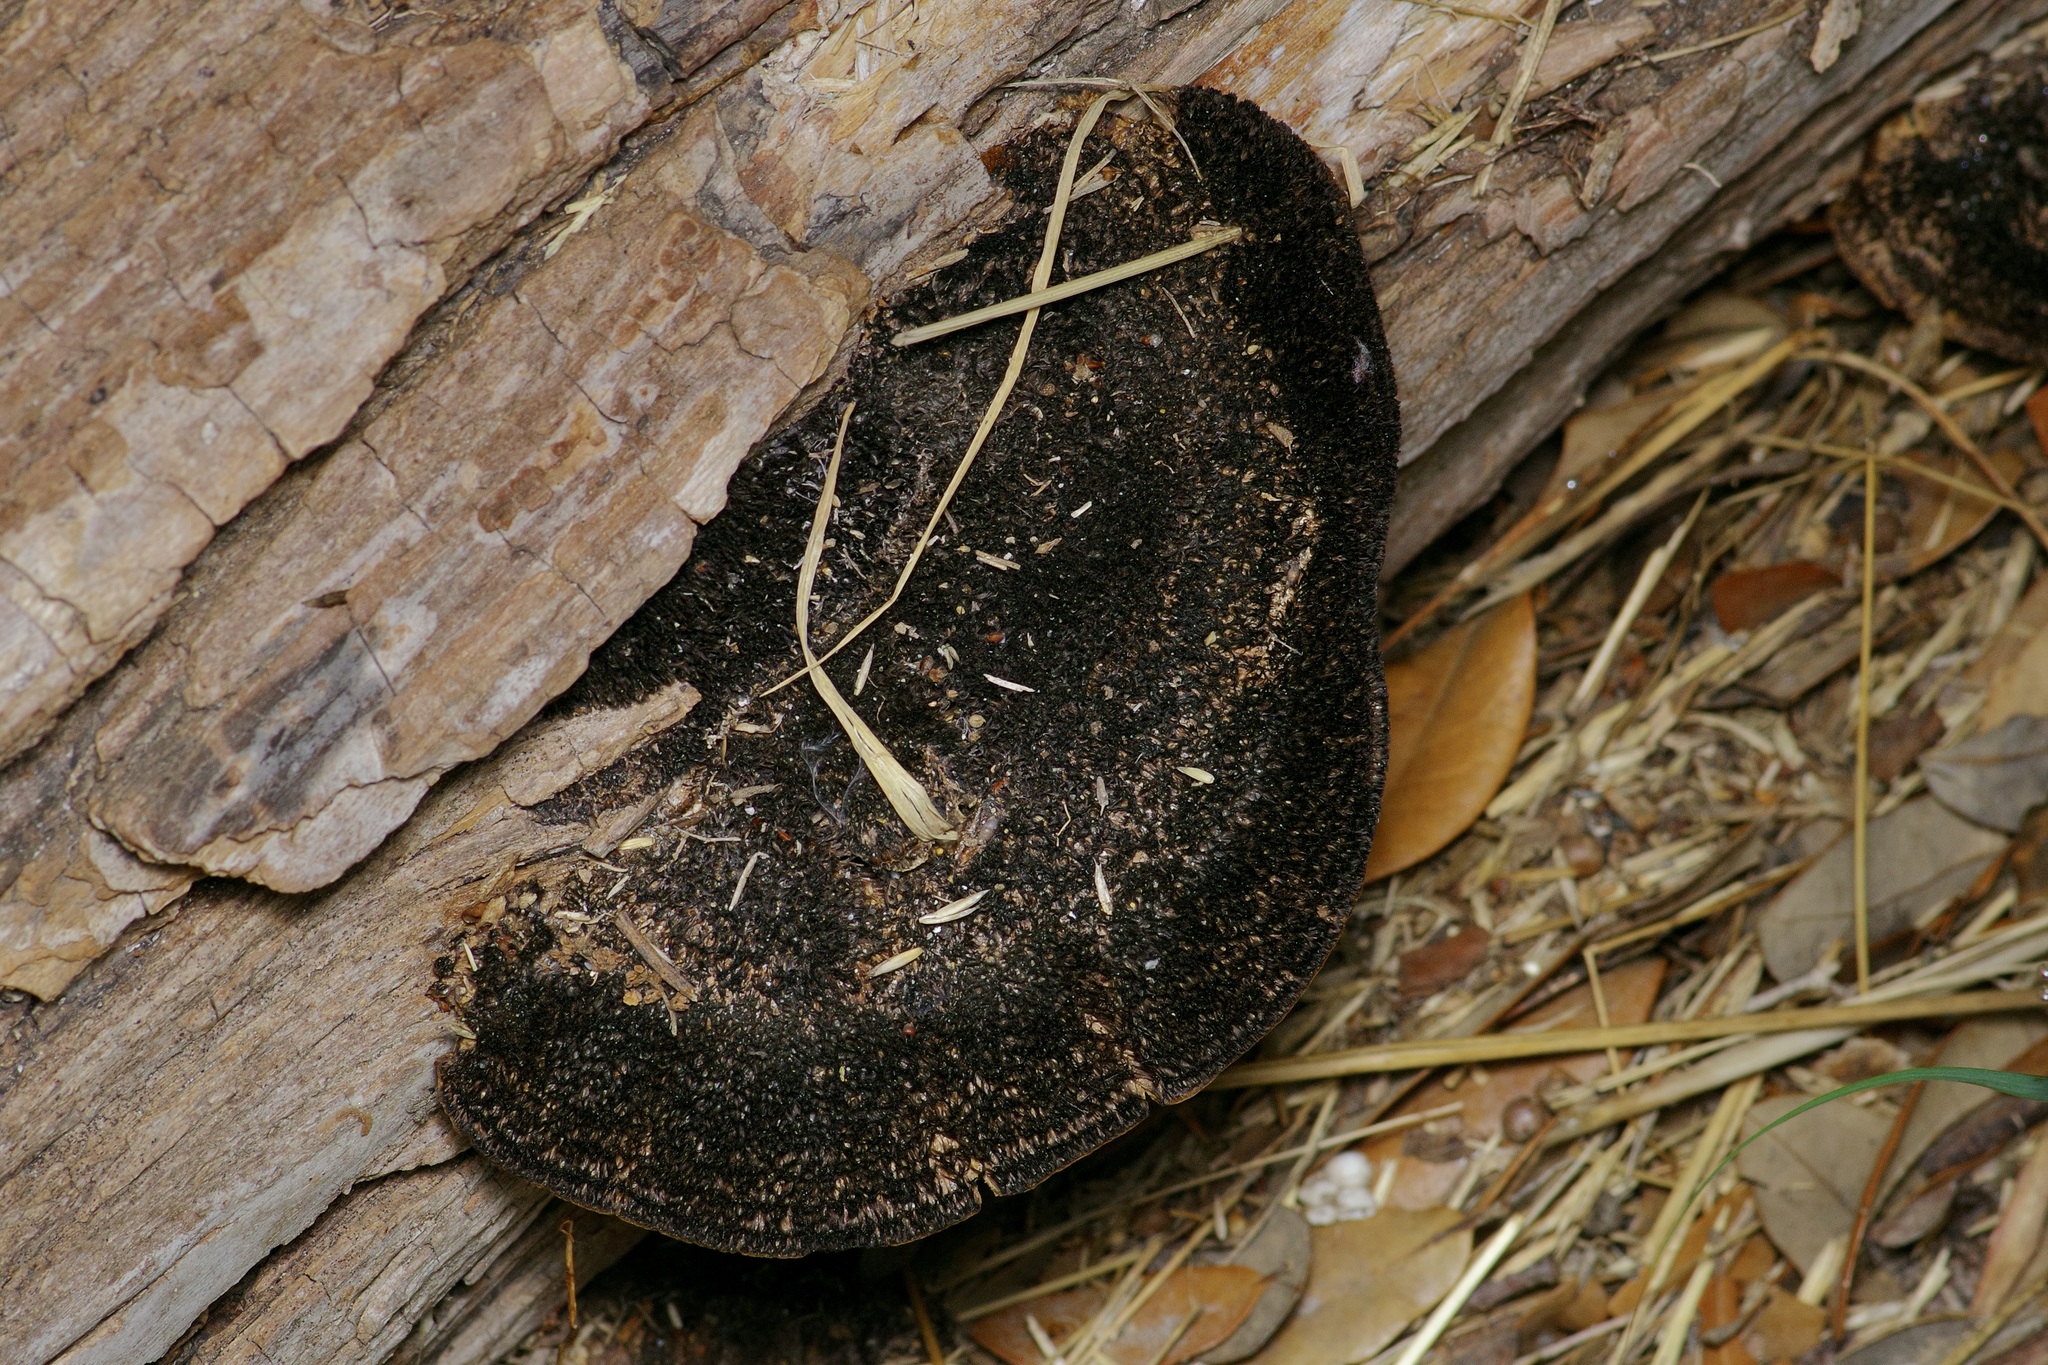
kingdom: Fungi
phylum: Basidiomycota
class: Agaricomycetes
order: Polyporales
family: Cerrenaceae
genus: Cerrena
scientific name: Cerrena hydnoides
